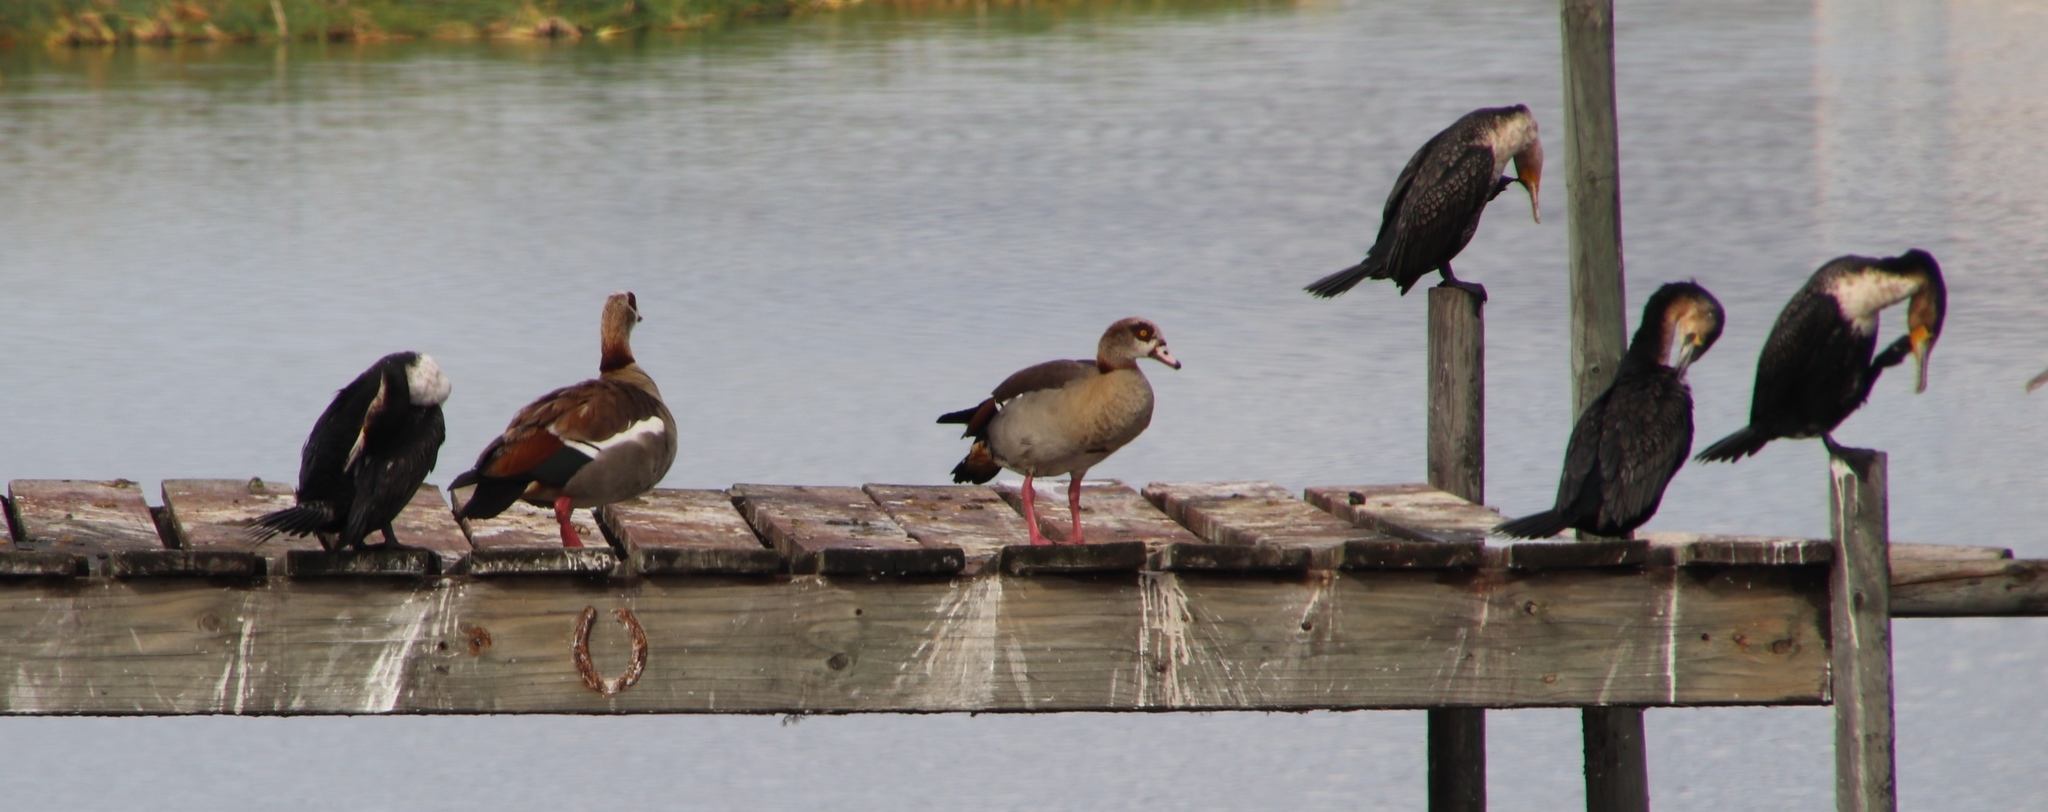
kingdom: Animalia
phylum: Chordata
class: Aves
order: Anseriformes
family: Anatidae
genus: Alopochen
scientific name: Alopochen aegyptiaca
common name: Egyptian goose
